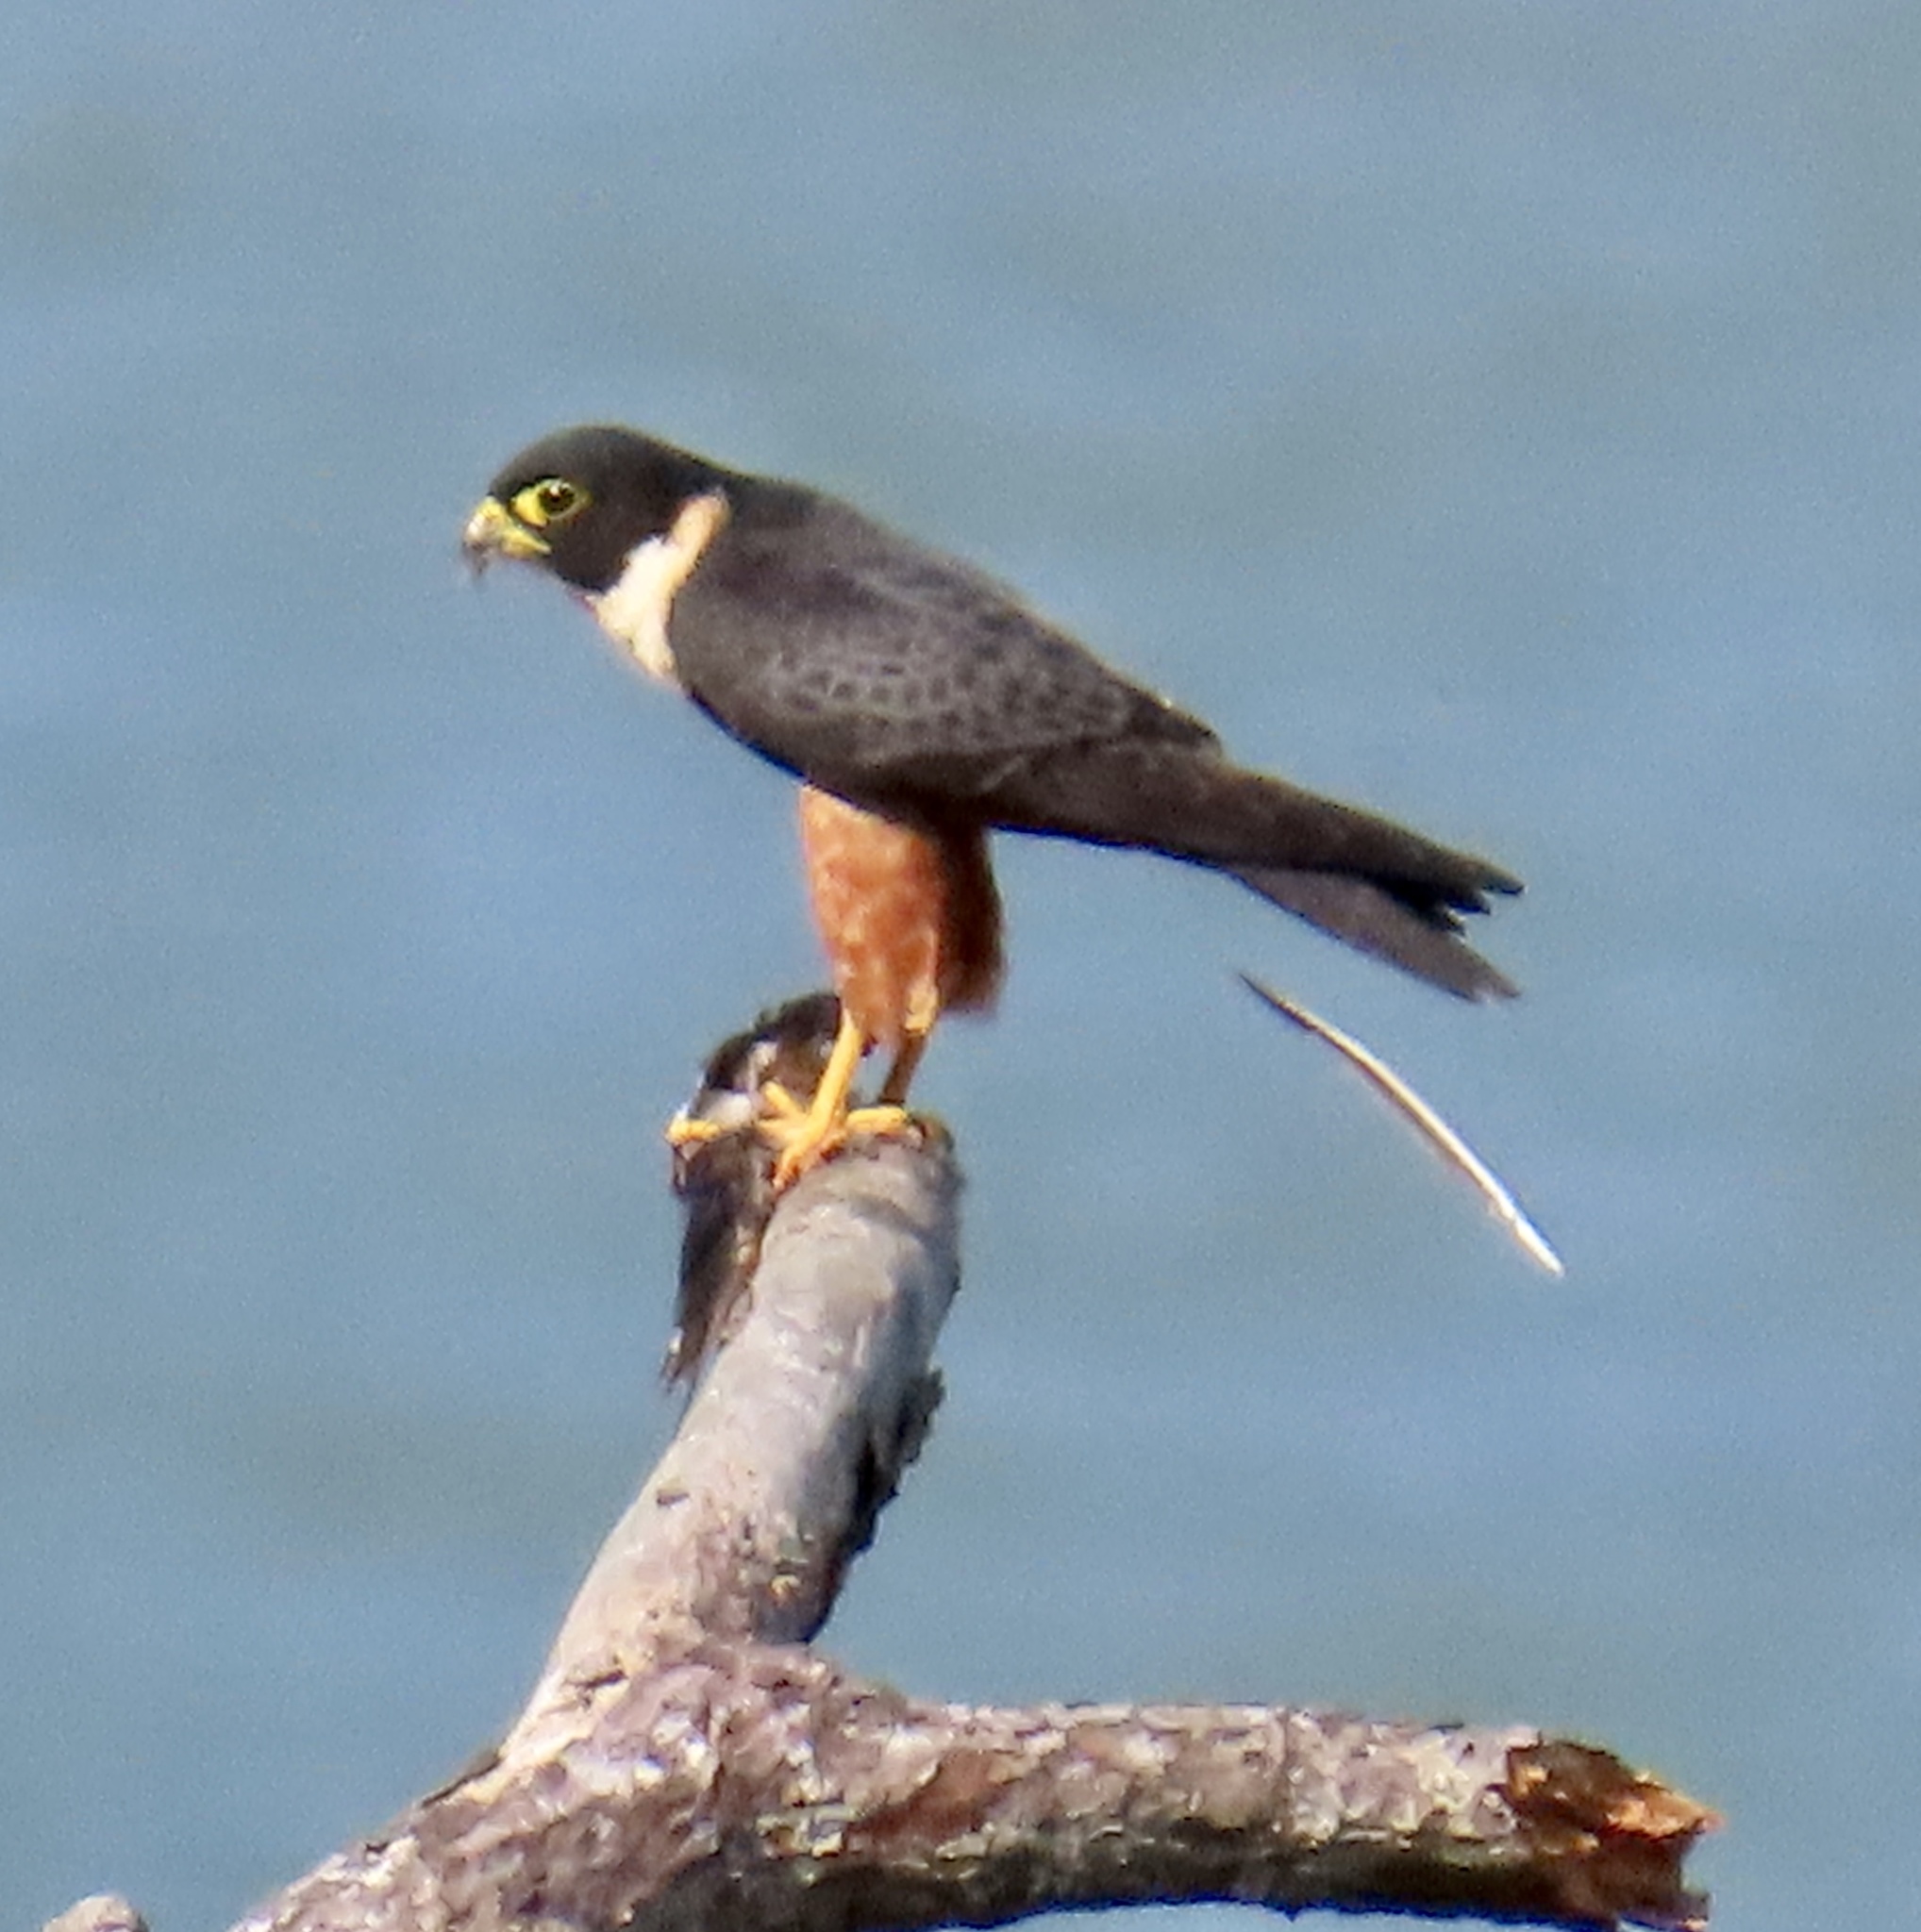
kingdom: Animalia
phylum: Chordata
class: Aves
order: Falconiformes
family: Falconidae
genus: Falco
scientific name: Falco rufigularis
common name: Bat falcon
